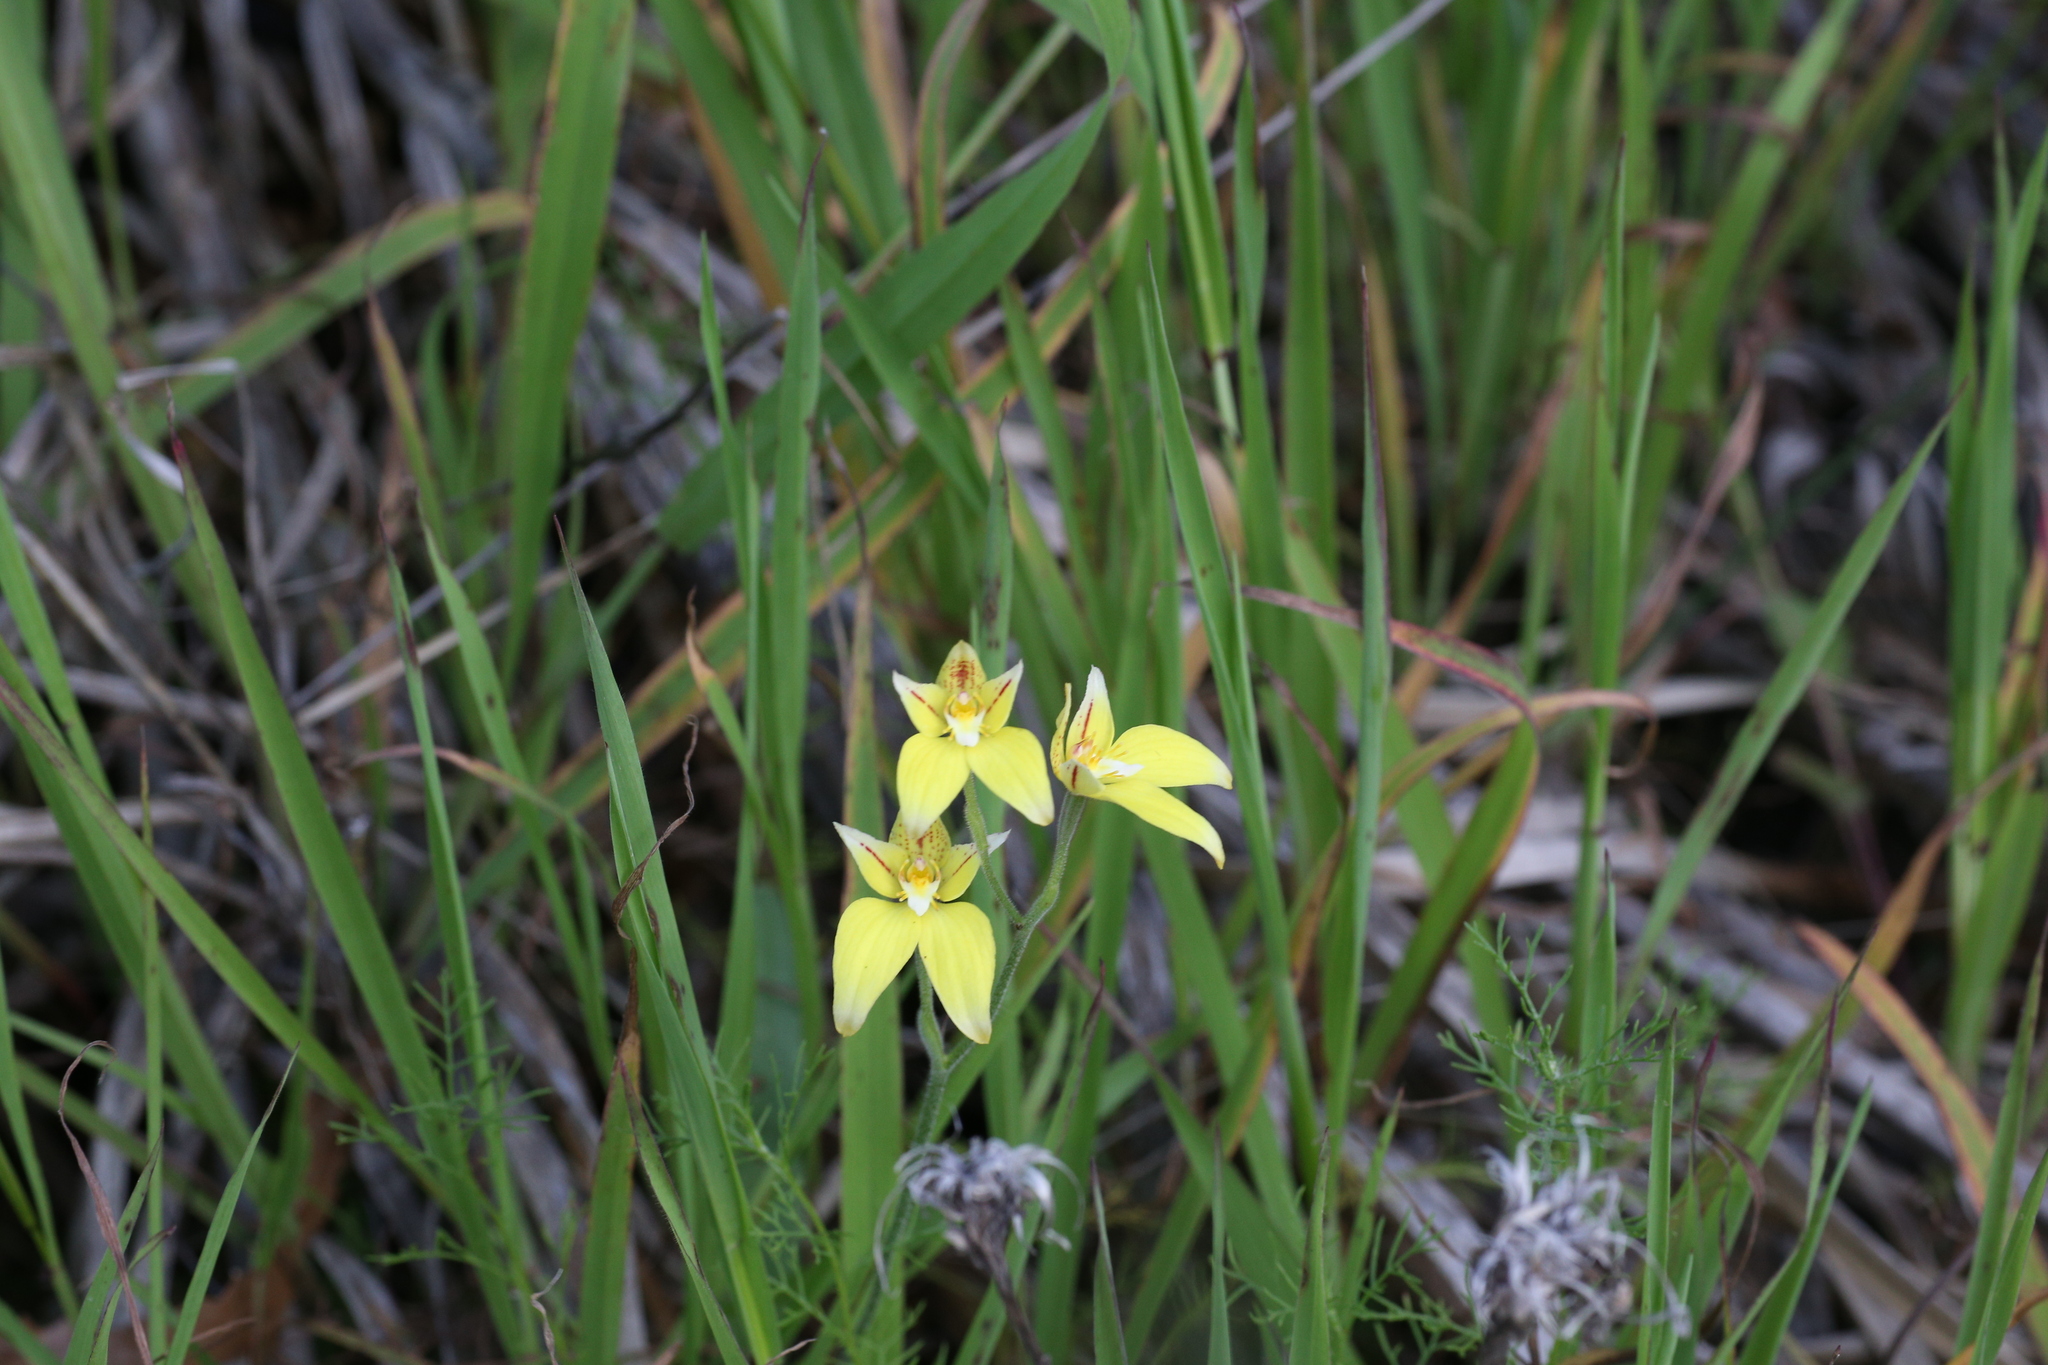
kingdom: Plantae
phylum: Tracheophyta
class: Liliopsida
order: Asparagales
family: Orchidaceae
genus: Caladenia
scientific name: Caladenia flava
